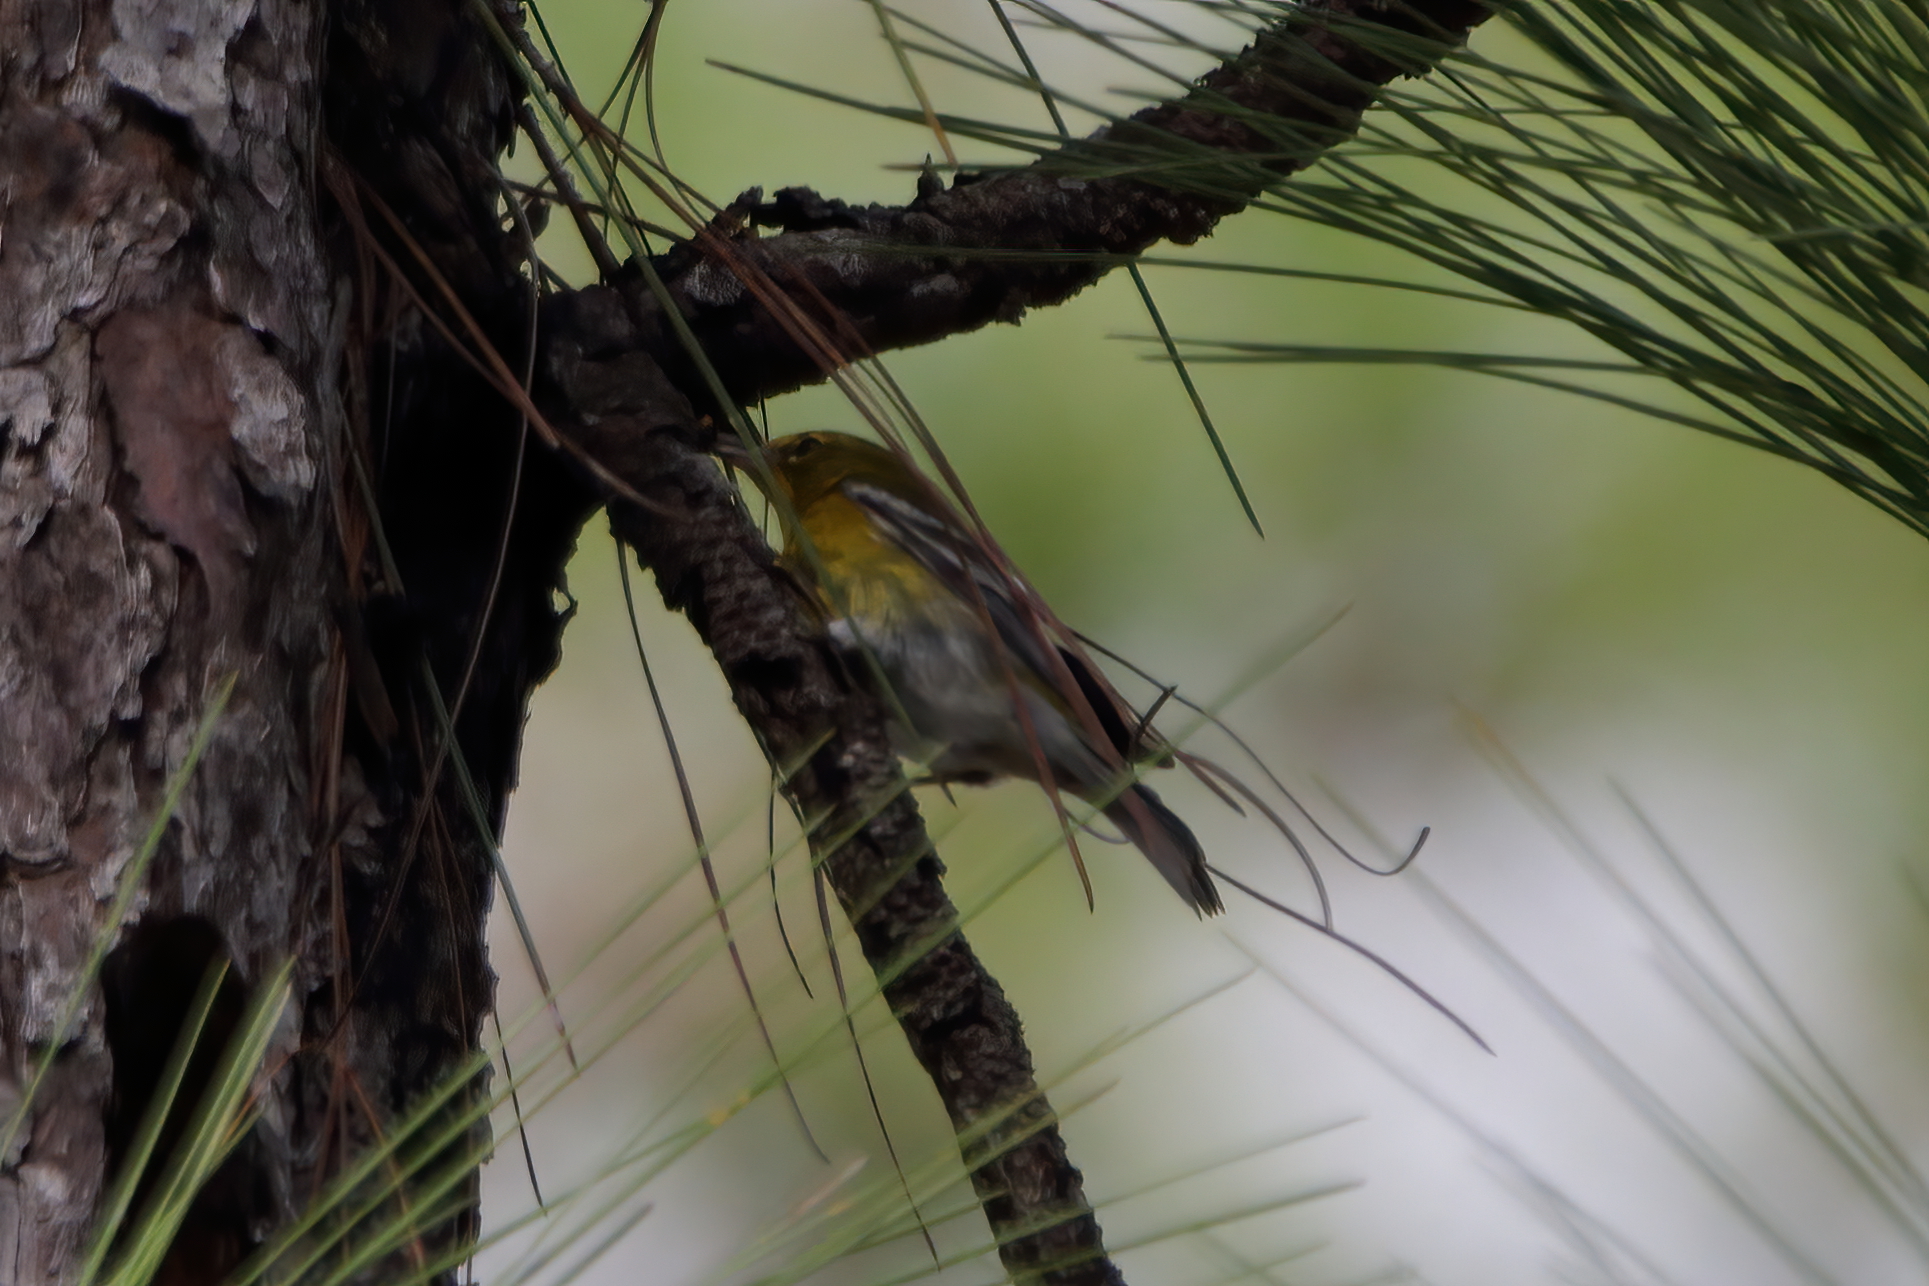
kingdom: Animalia
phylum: Chordata
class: Aves
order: Passeriformes
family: Parulidae
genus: Setophaga
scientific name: Setophaga pinus
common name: Pine warbler
